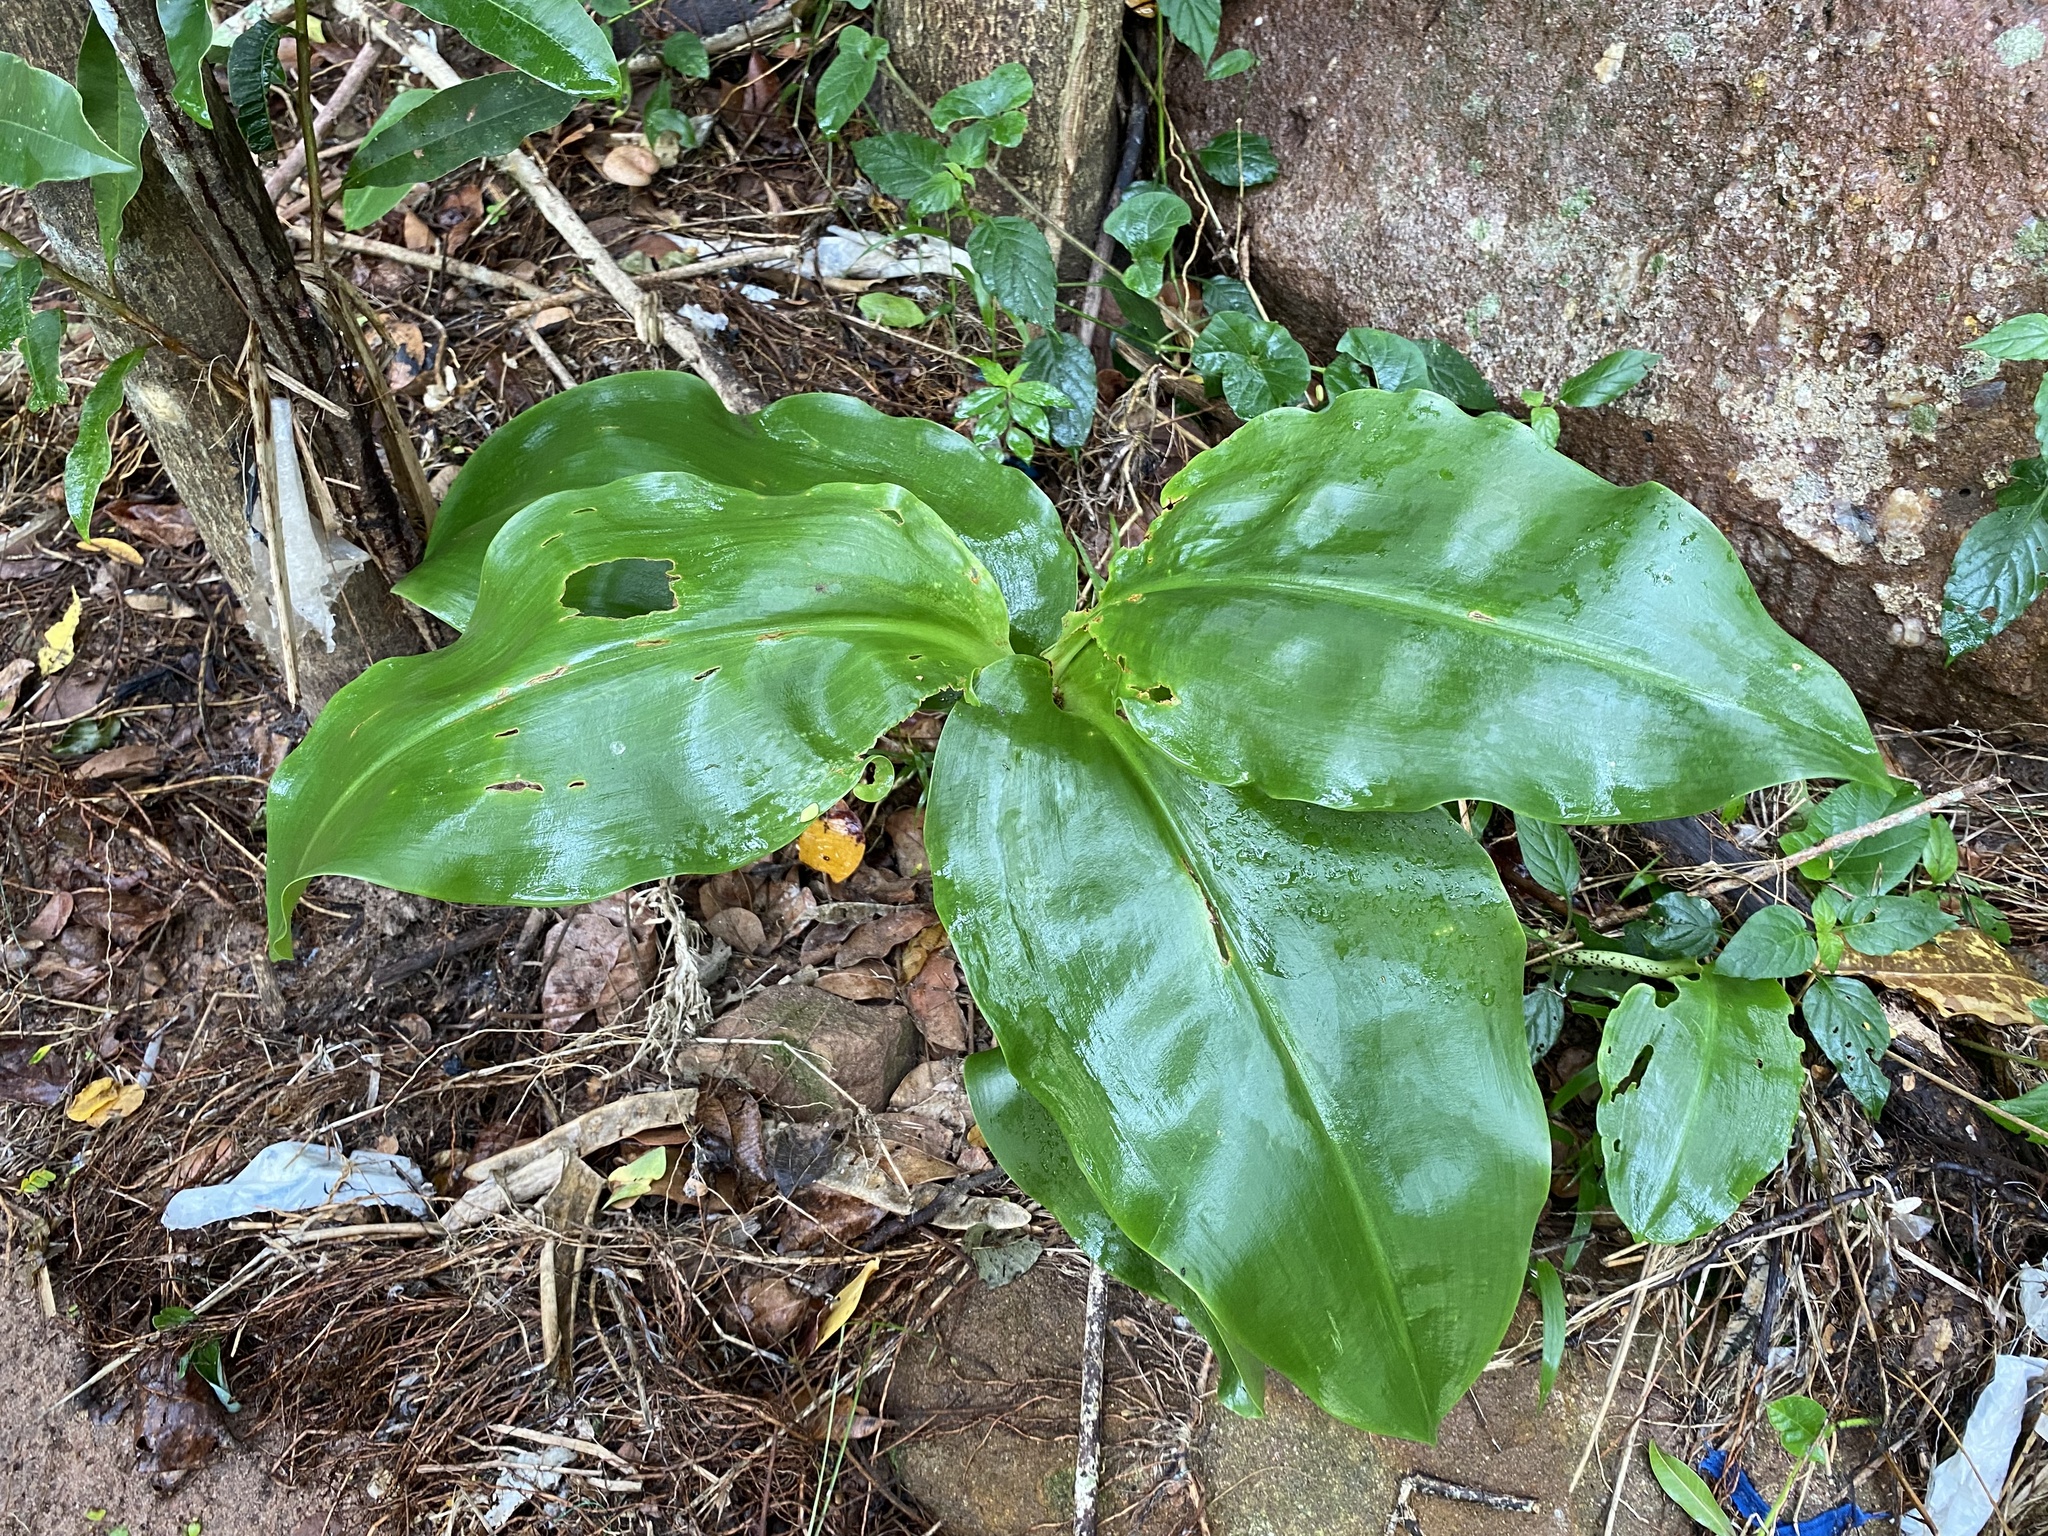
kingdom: Plantae
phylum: Tracheophyta
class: Liliopsida
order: Asparagales
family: Amaryllidaceae
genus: Scadoxus
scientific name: Scadoxus puniceus
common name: Royal-paintbrush
